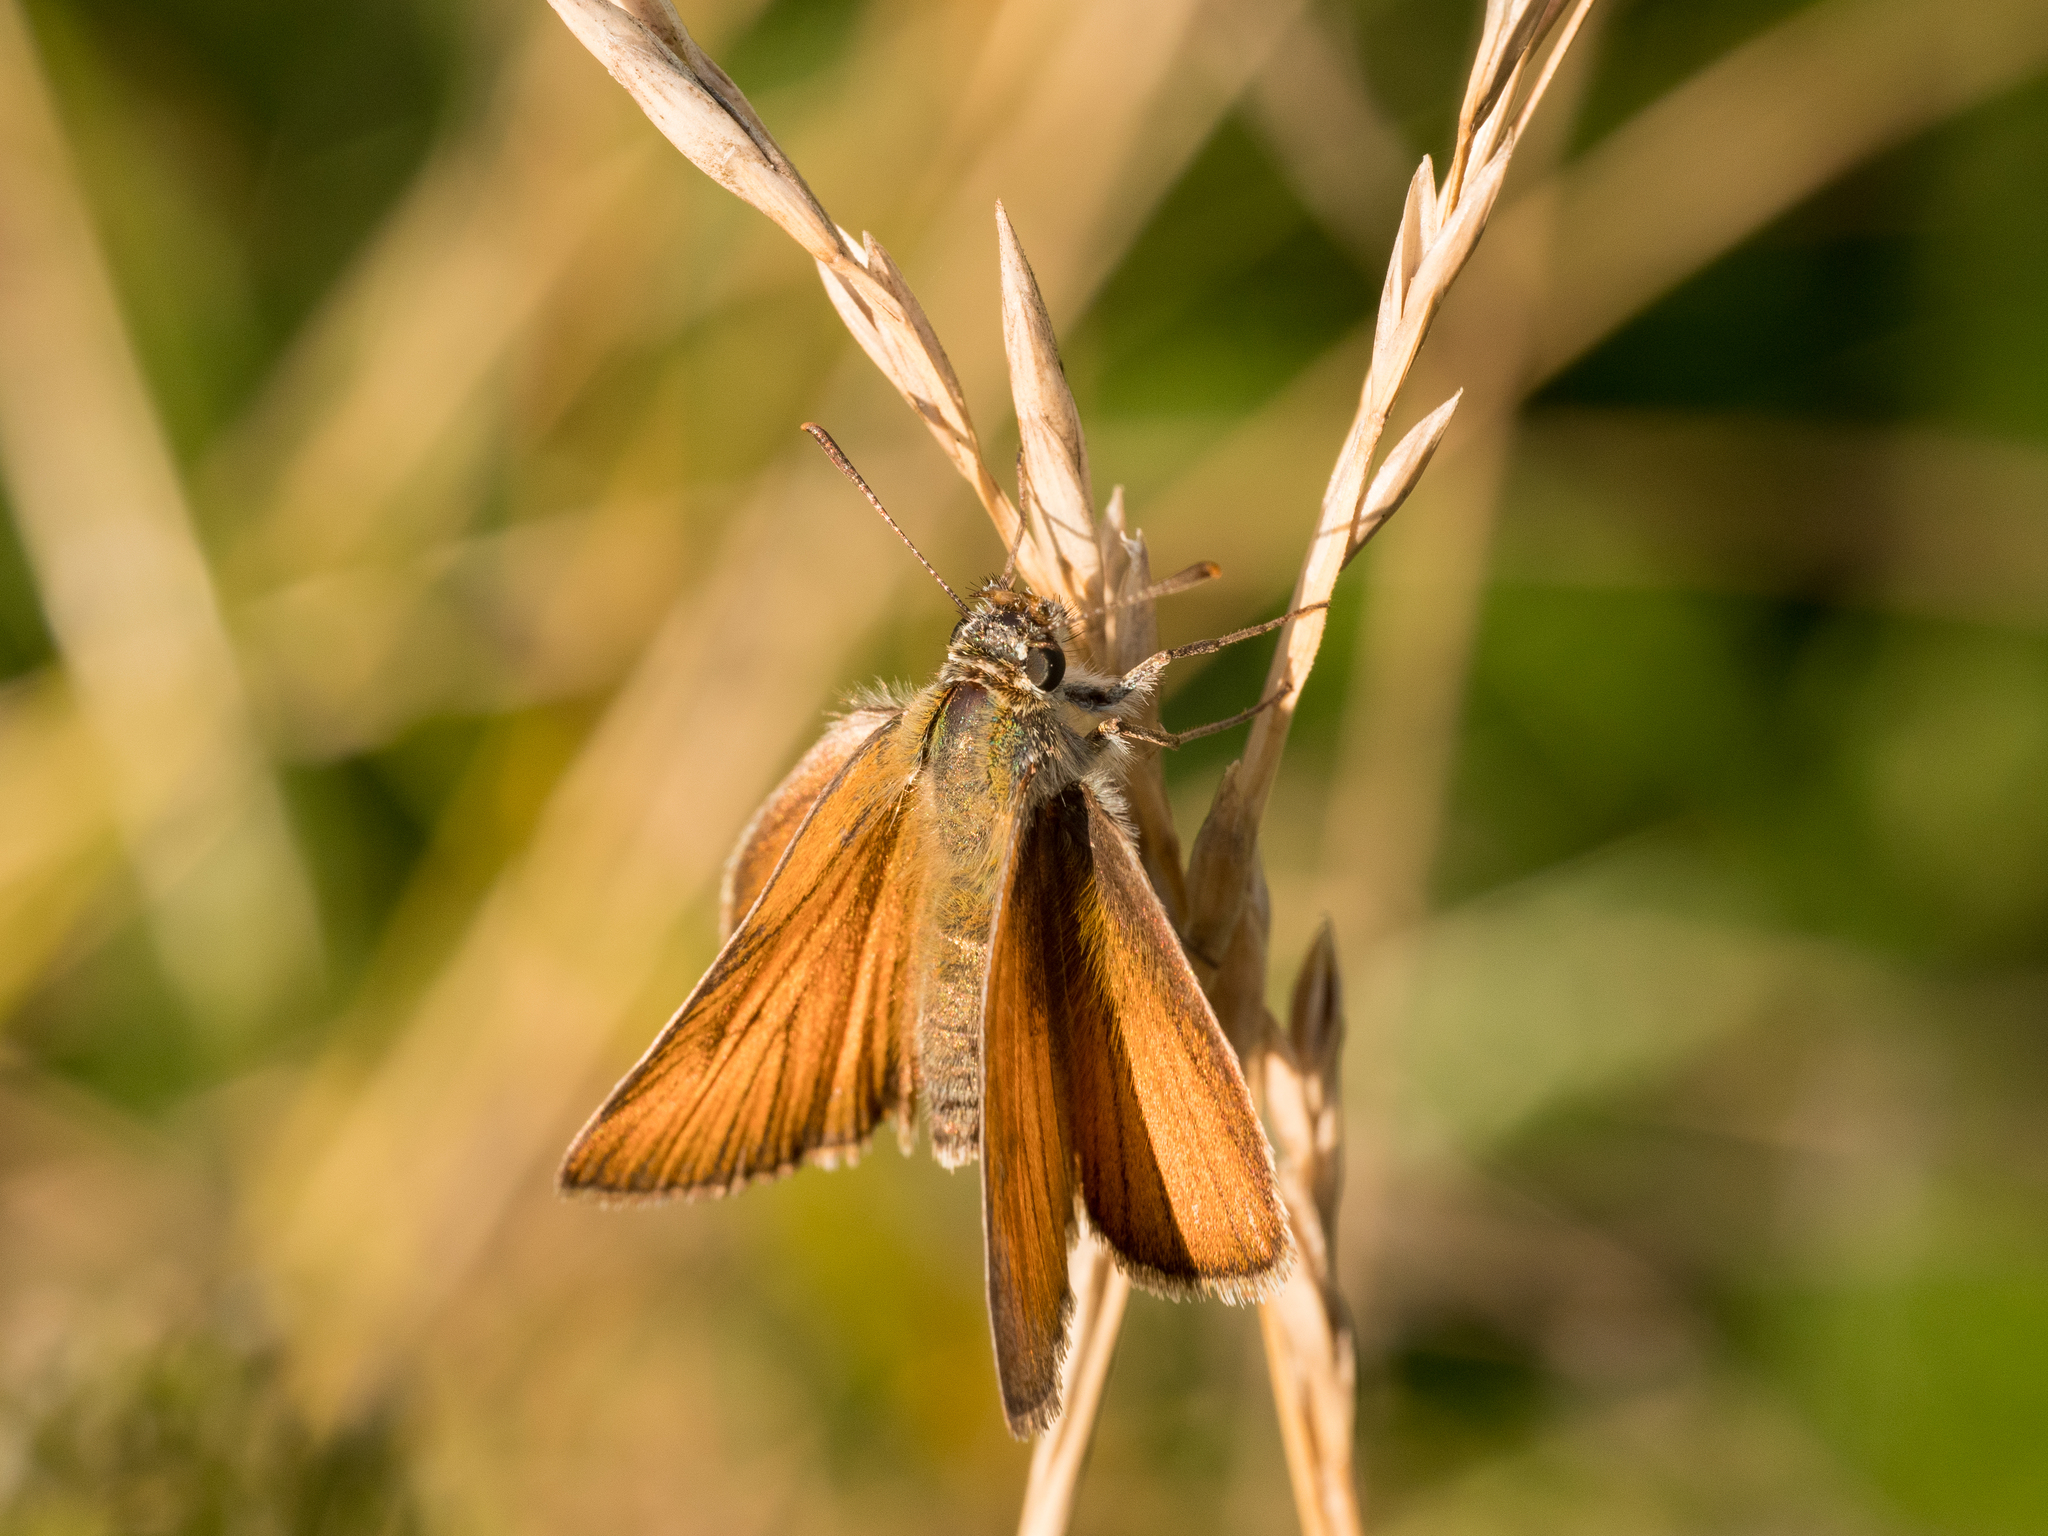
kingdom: Animalia
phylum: Arthropoda
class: Insecta
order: Lepidoptera
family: Hesperiidae
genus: Thymelicus
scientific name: Thymelicus sylvestris
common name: Small skipper
